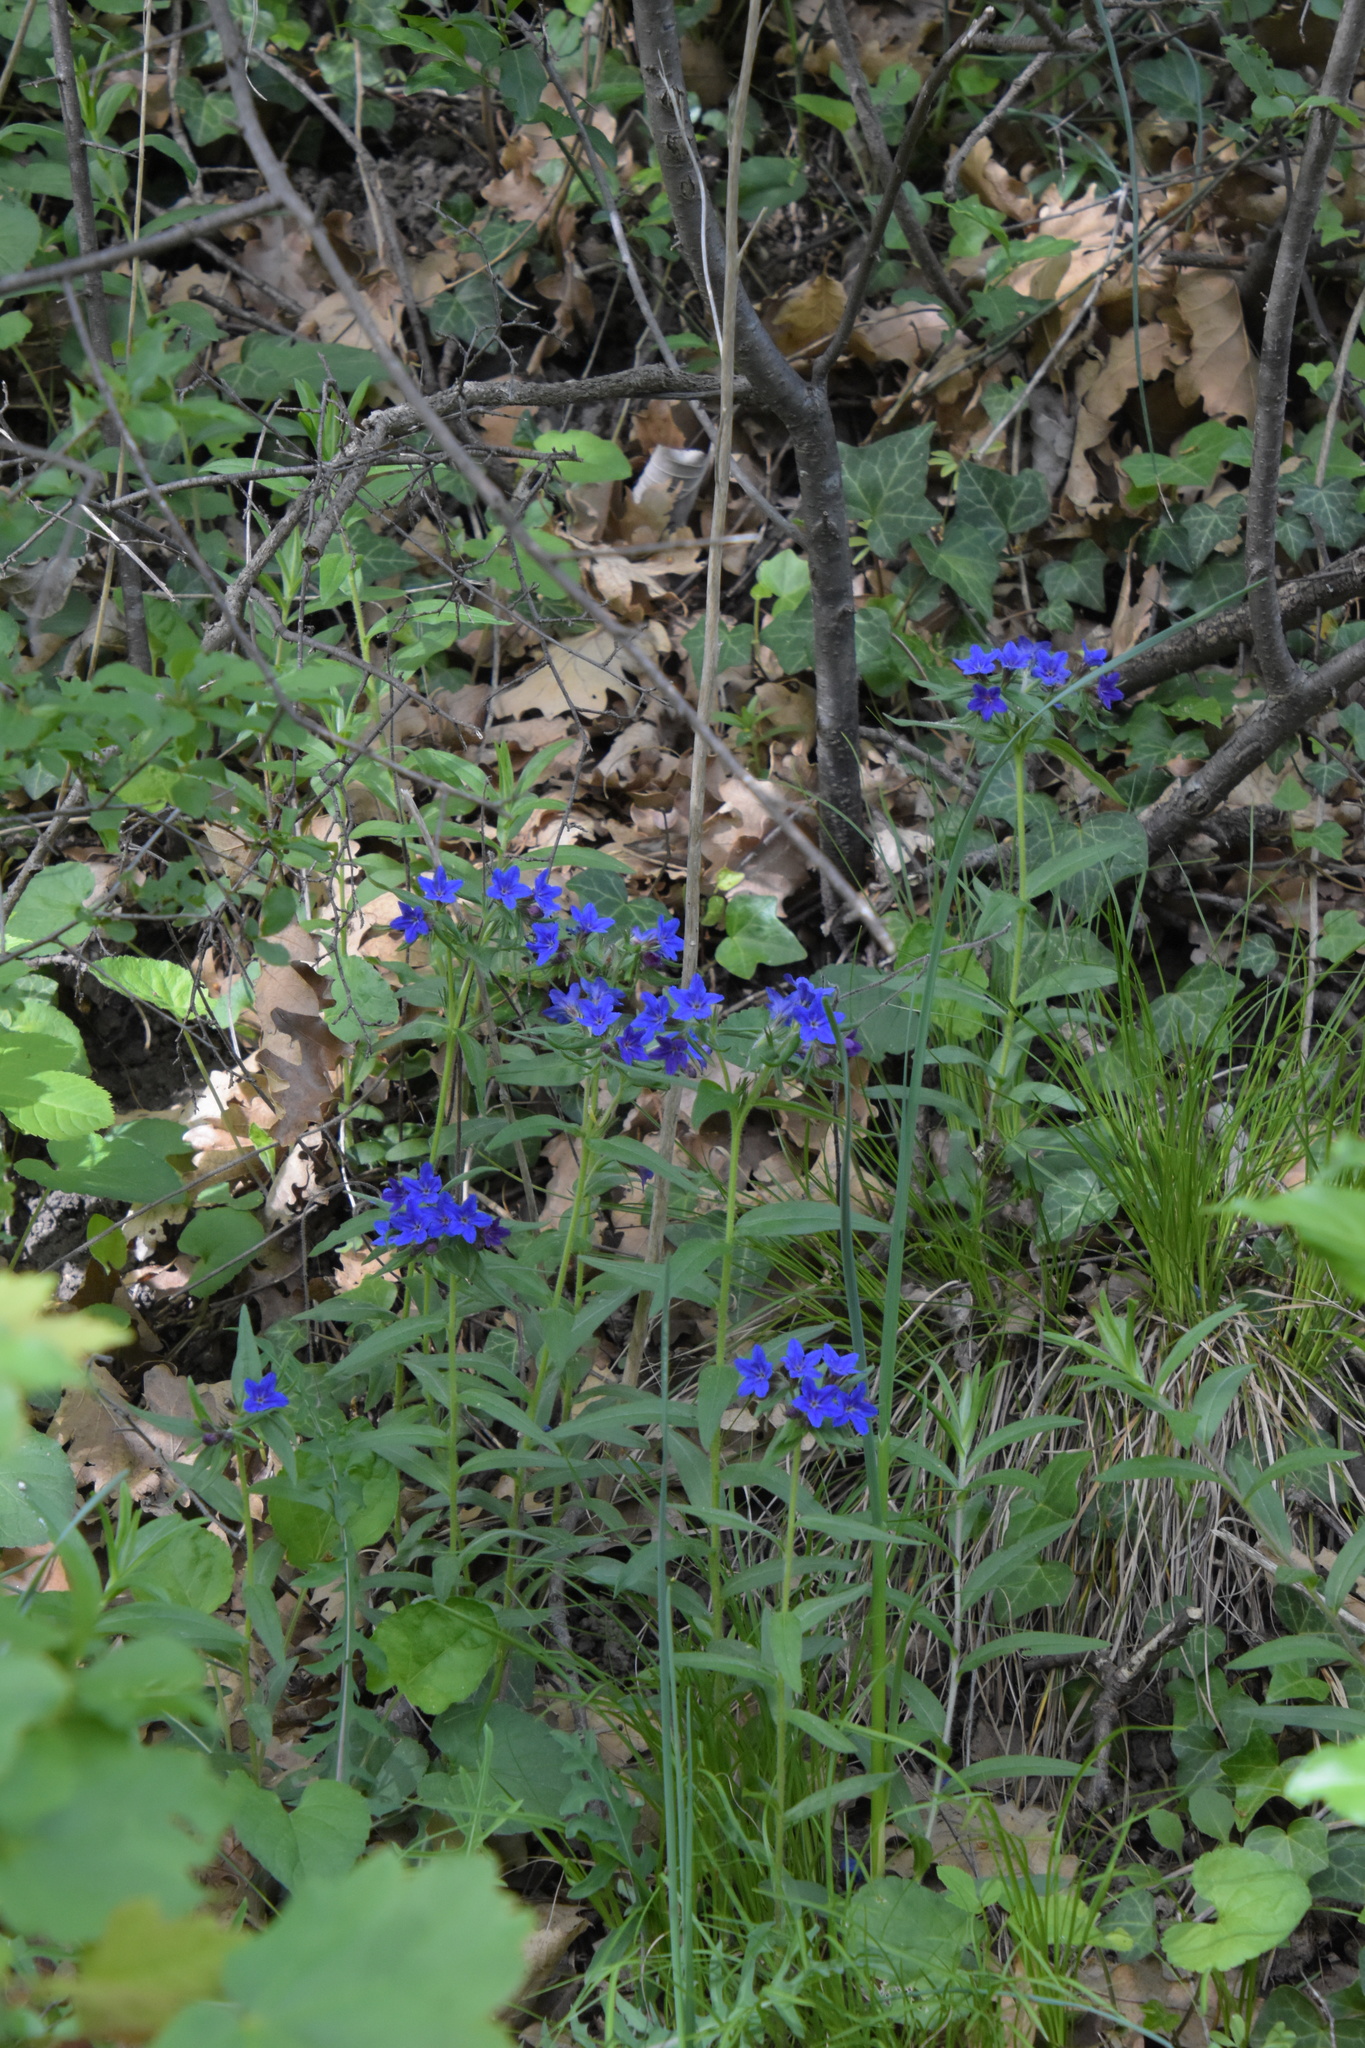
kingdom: Plantae
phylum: Tracheophyta
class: Magnoliopsida
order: Boraginales
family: Boraginaceae
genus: Aegonychon
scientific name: Aegonychon purpurocaeruleum
